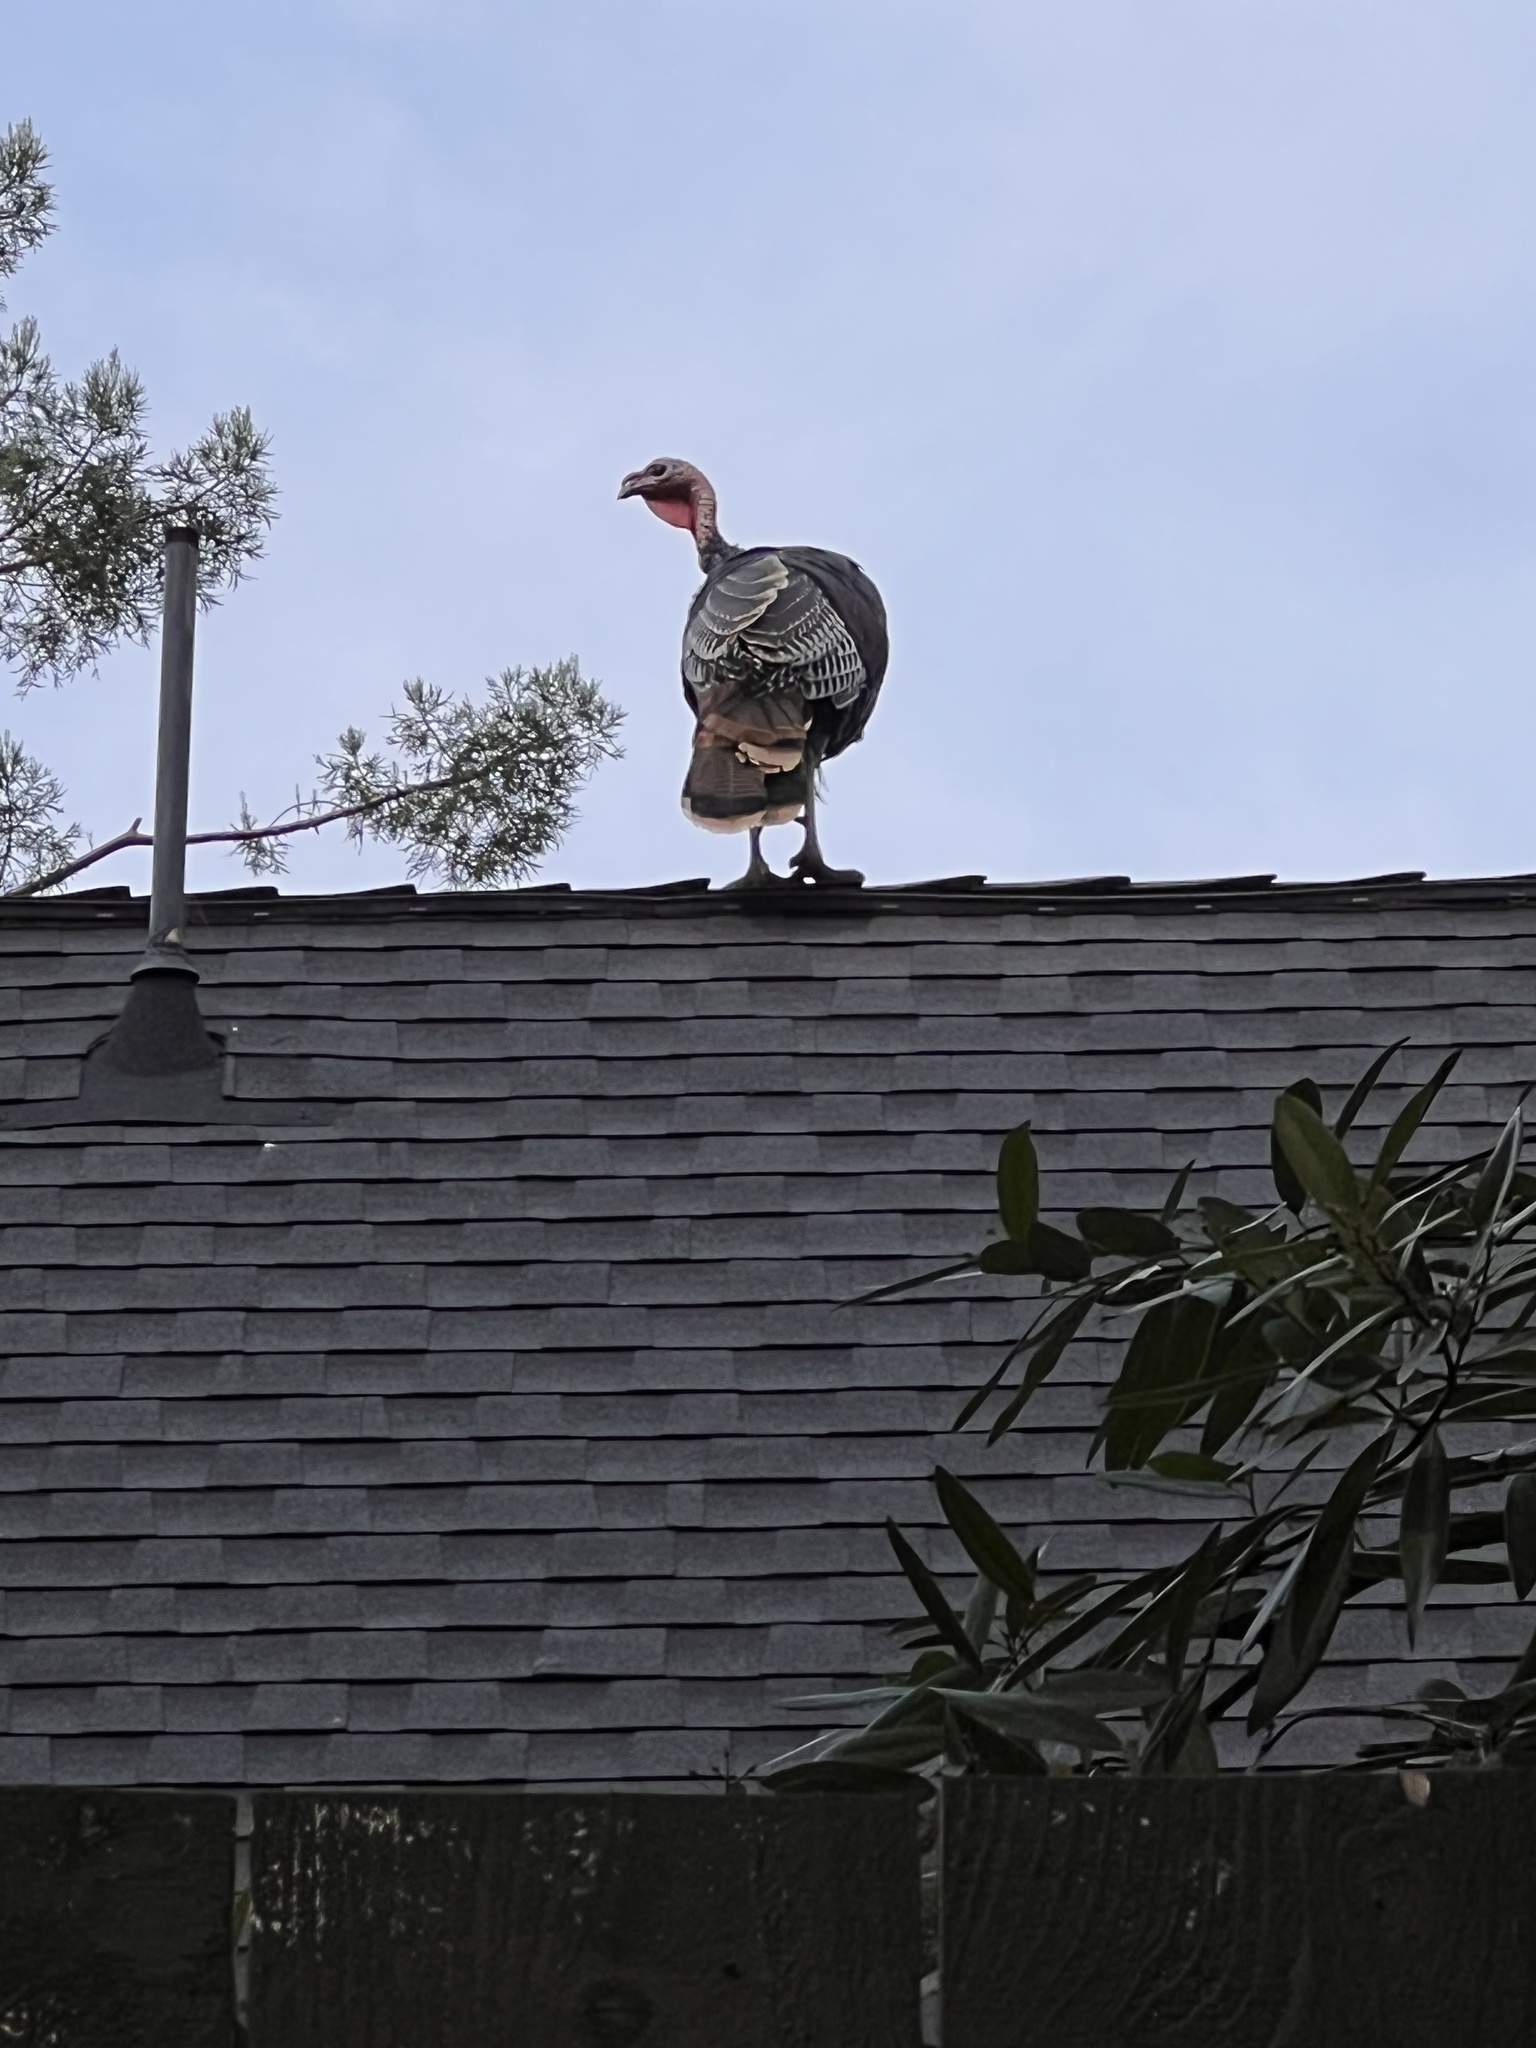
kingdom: Animalia
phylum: Chordata
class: Aves
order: Galliformes
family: Phasianidae
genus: Meleagris
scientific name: Meleagris gallopavo
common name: Wild turkey
